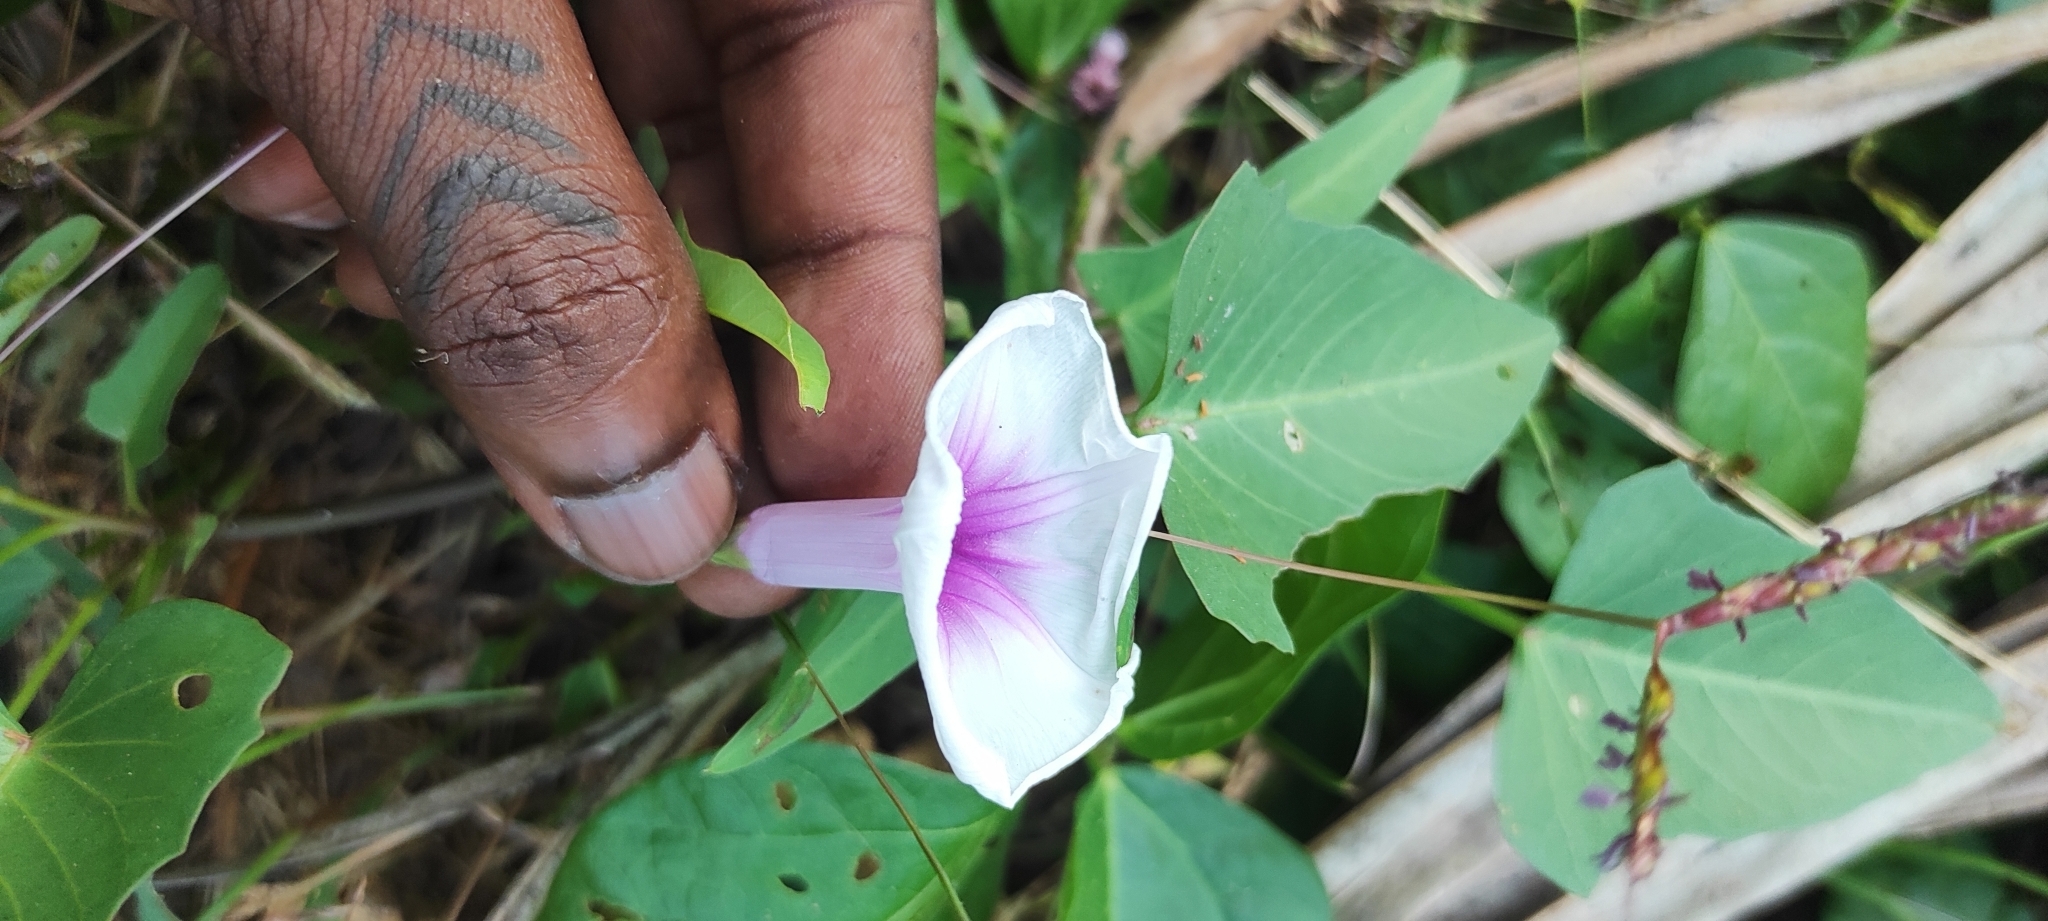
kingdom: Plantae
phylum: Tracheophyta
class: Magnoliopsida
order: Solanales
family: Convolvulaceae
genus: Ipomoea
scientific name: Ipomoea aquatica
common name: Swamp morning-glory
